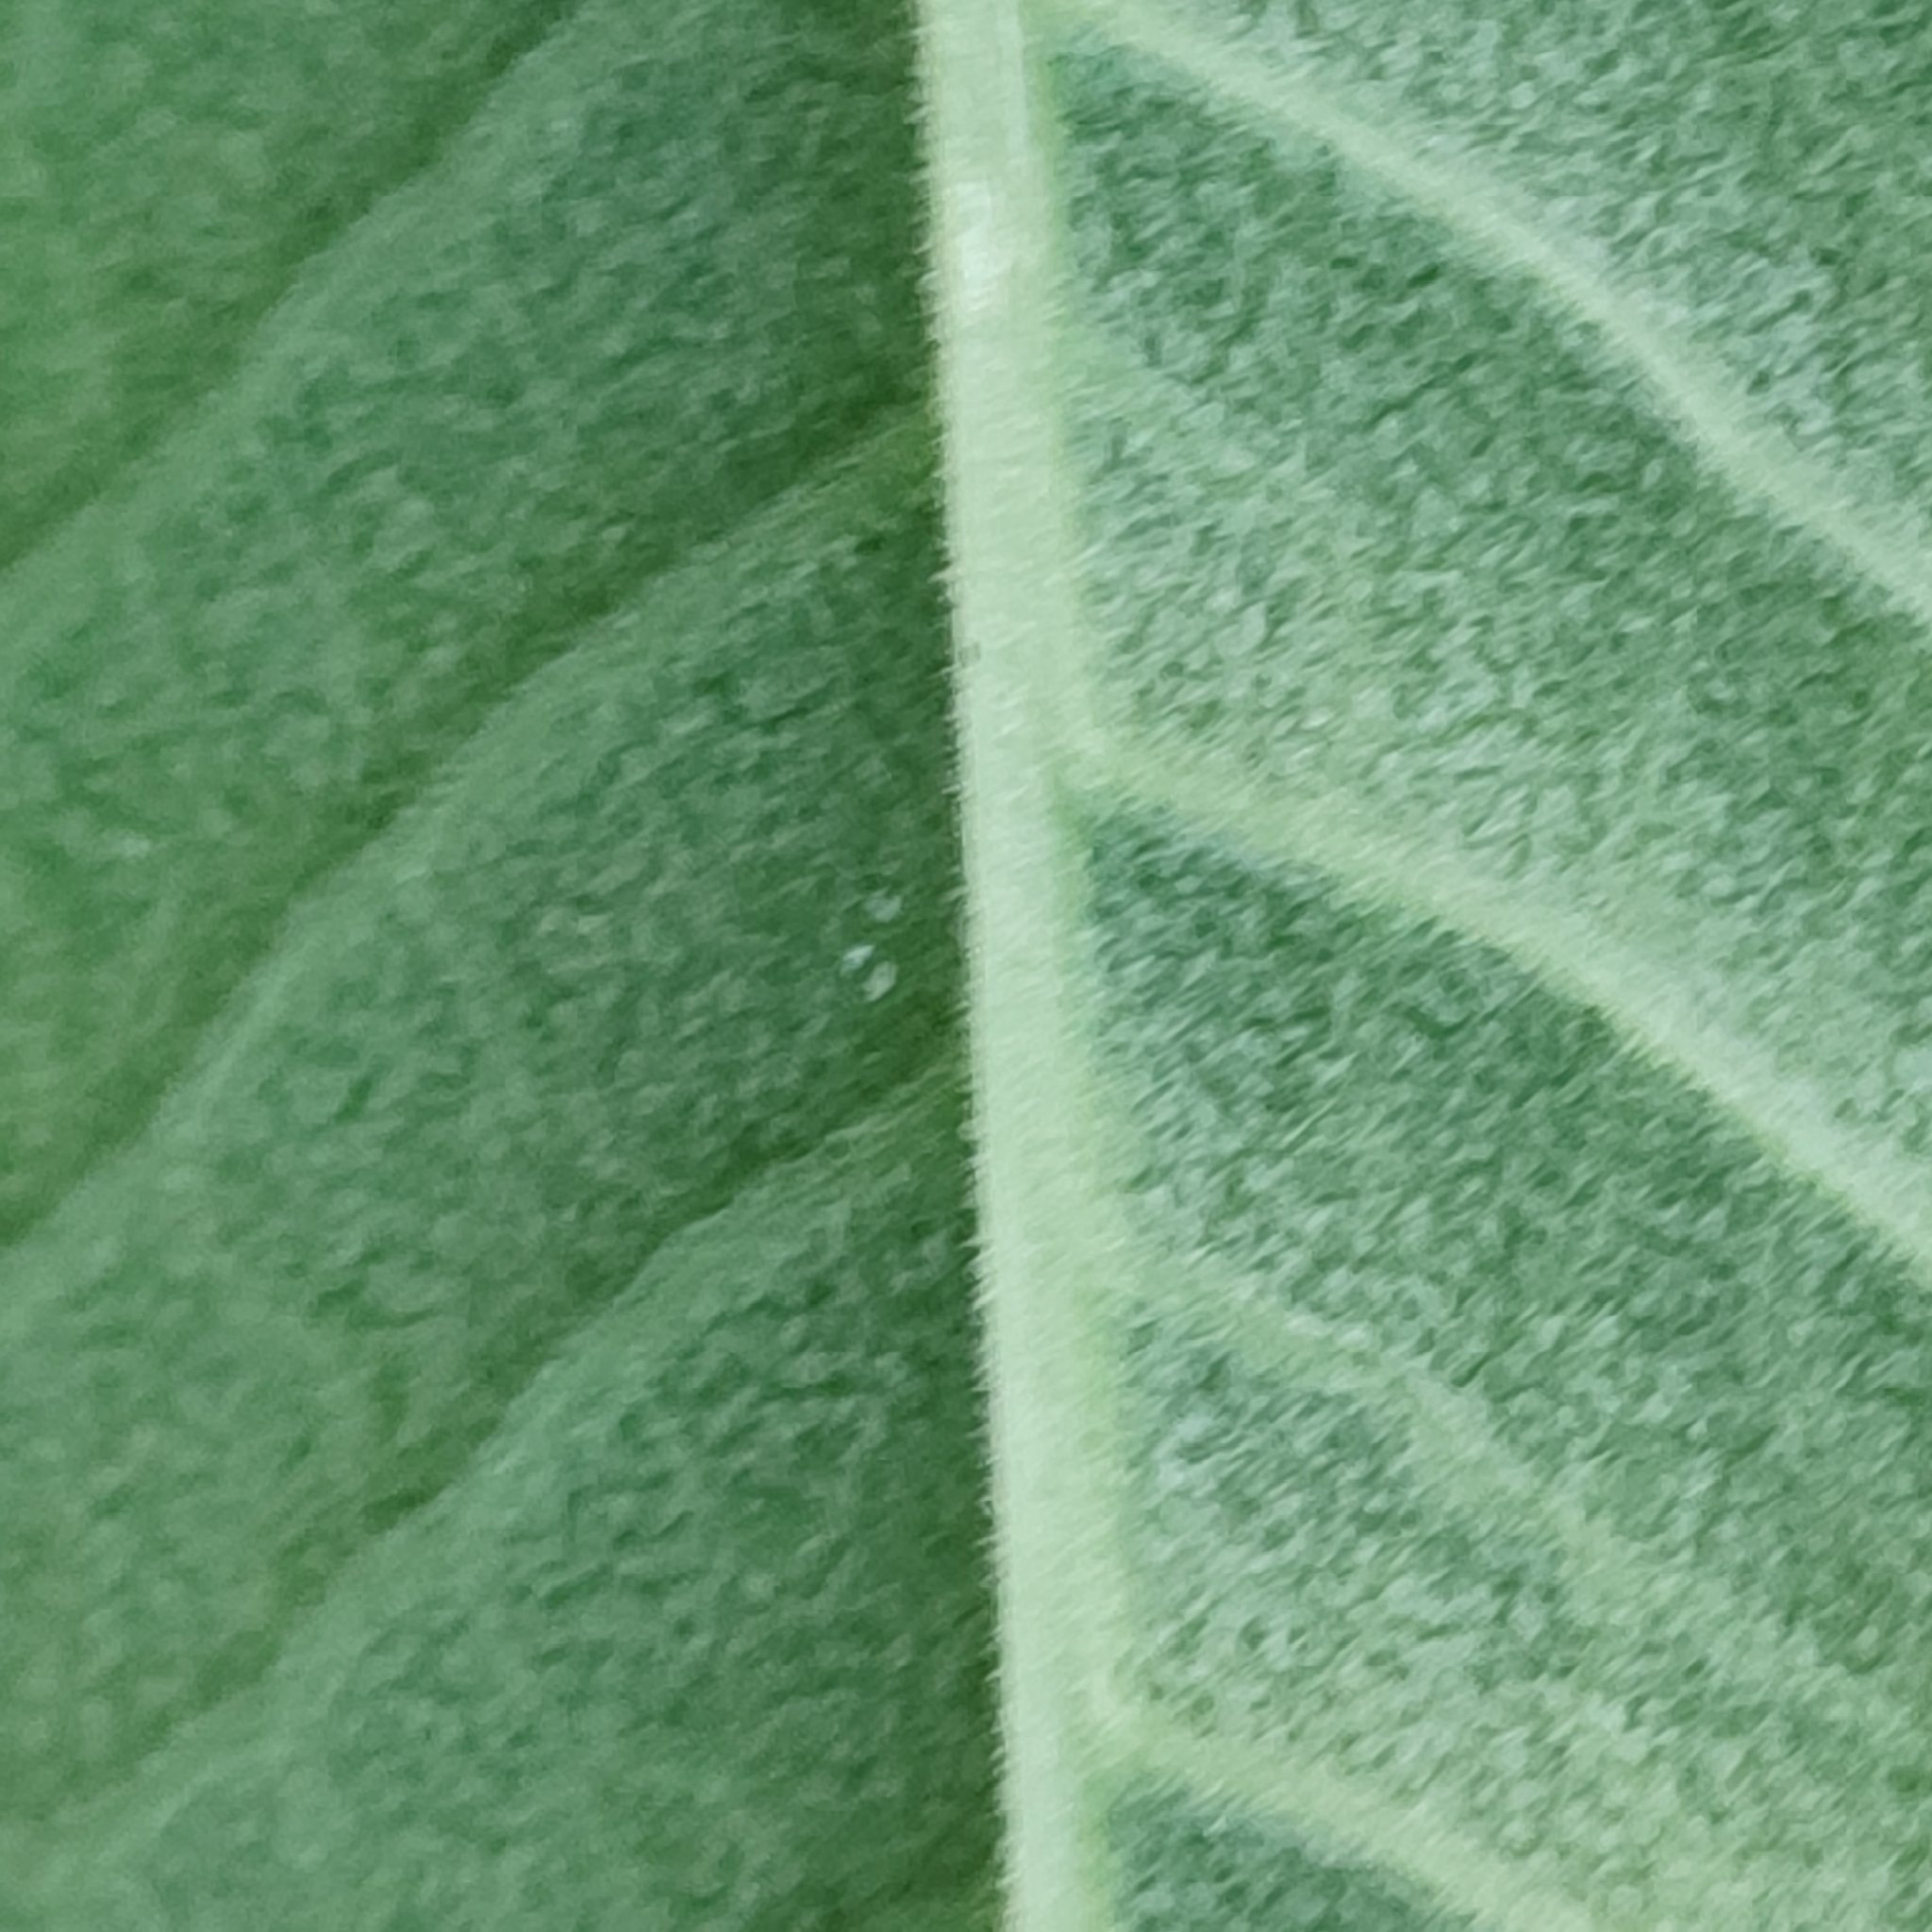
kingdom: Plantae
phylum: Tracheophyta
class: Magnoliopsida
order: Ericales
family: Primulaceae
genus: Primula
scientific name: Primula veris
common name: Cowslip
